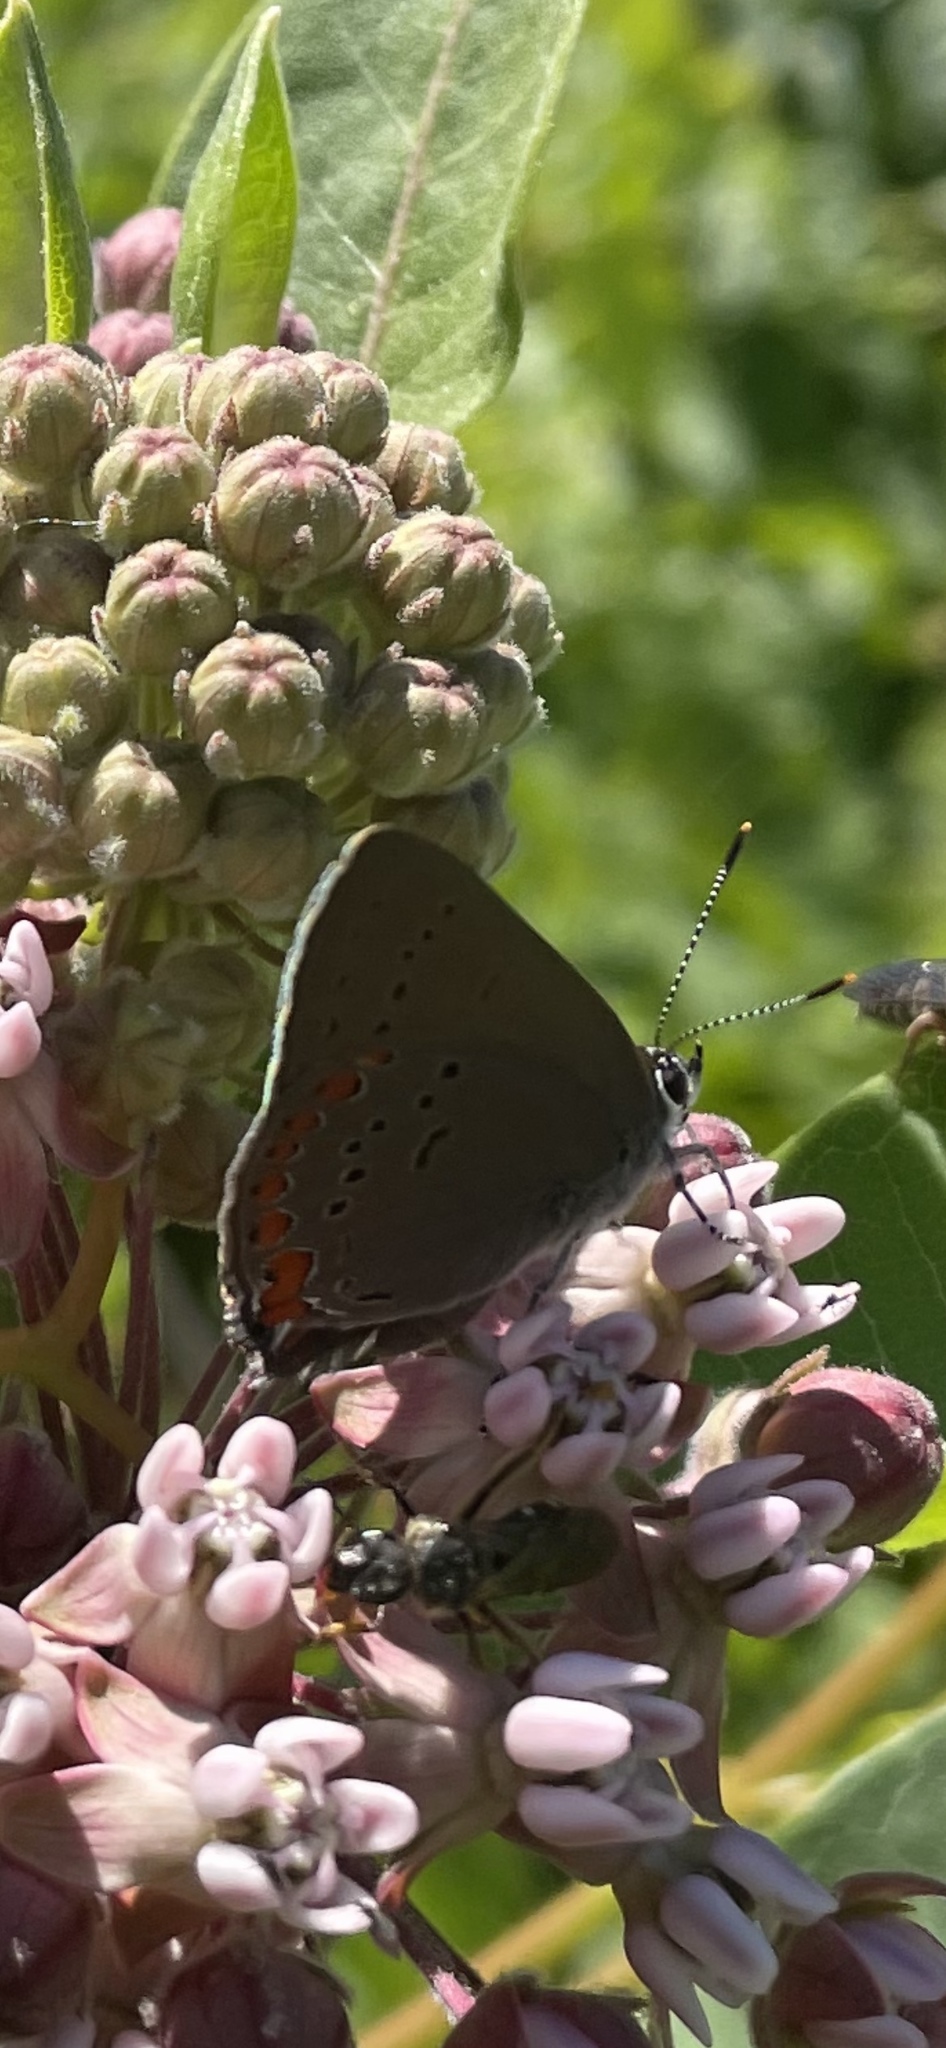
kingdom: Animalia
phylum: Arthropoda
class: Insecta
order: Lepidoptera
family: Lycaenidae
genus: Harkenclenus
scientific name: Harkenclenus titus
